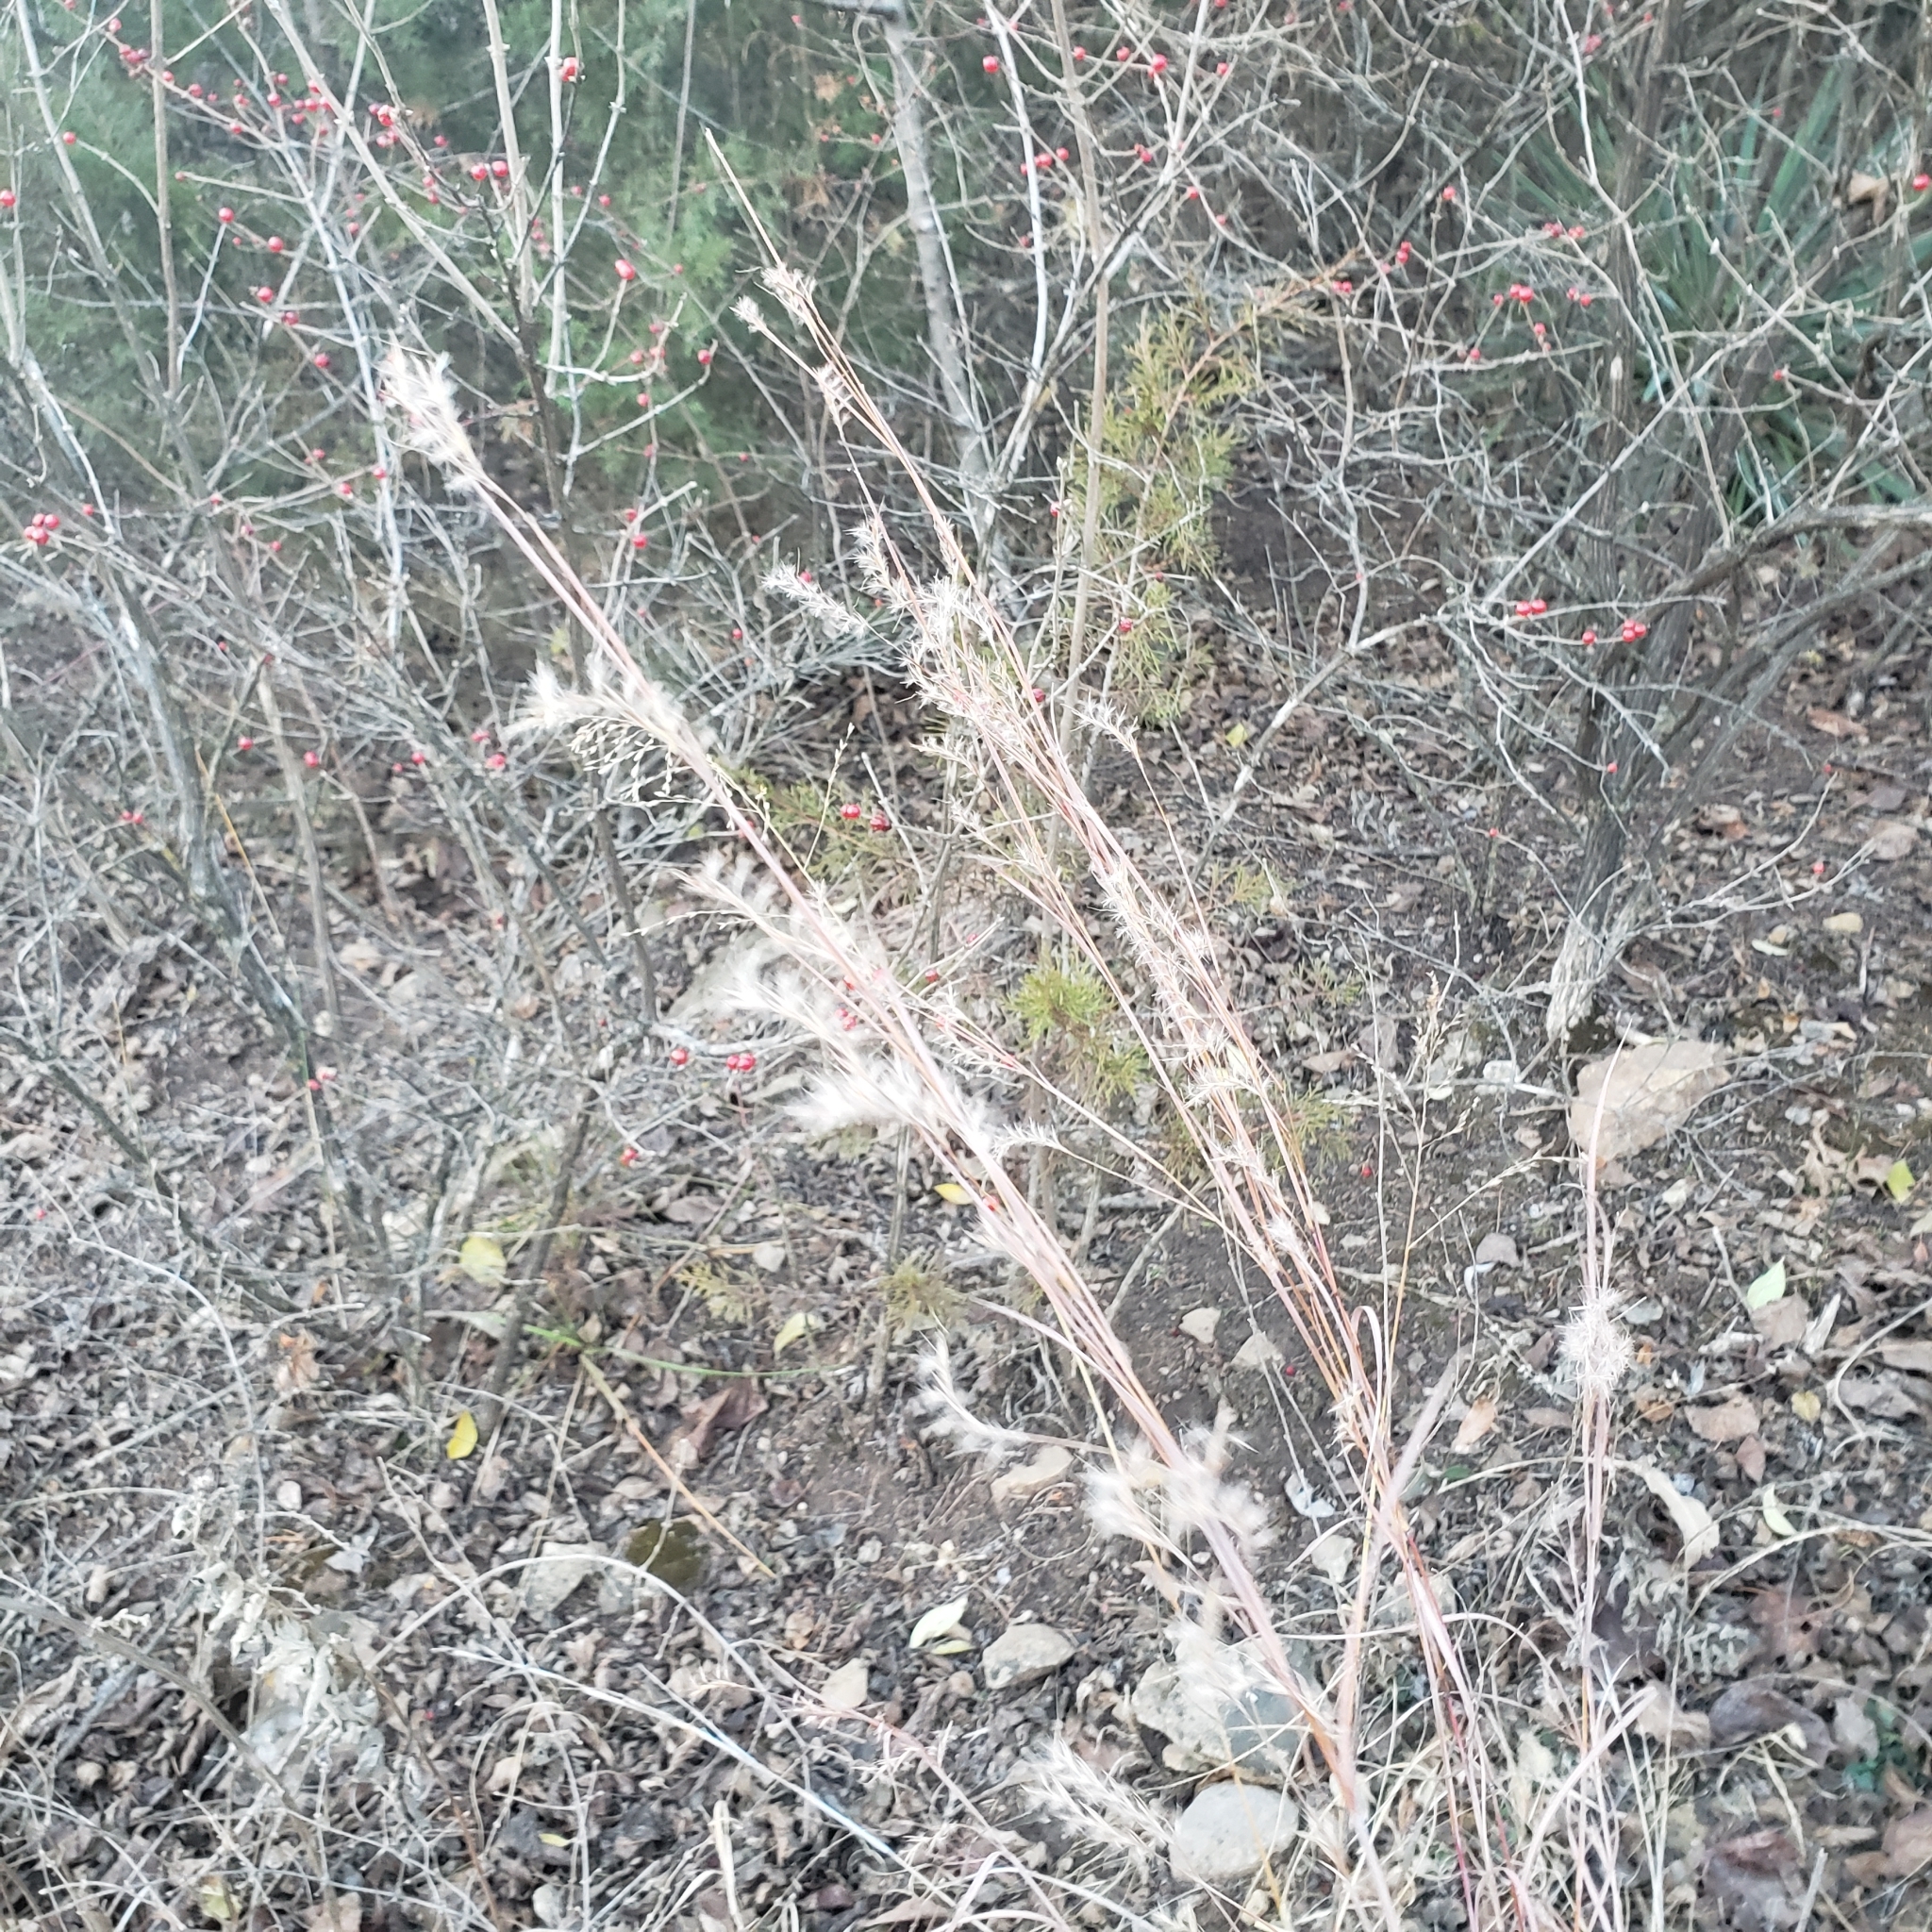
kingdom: Plantae
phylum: Tracheophyta
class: Liliopsida
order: Poales
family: Poaceae
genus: Schizachyrium
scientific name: Schizachyrium scoparium
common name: Little bluestem
